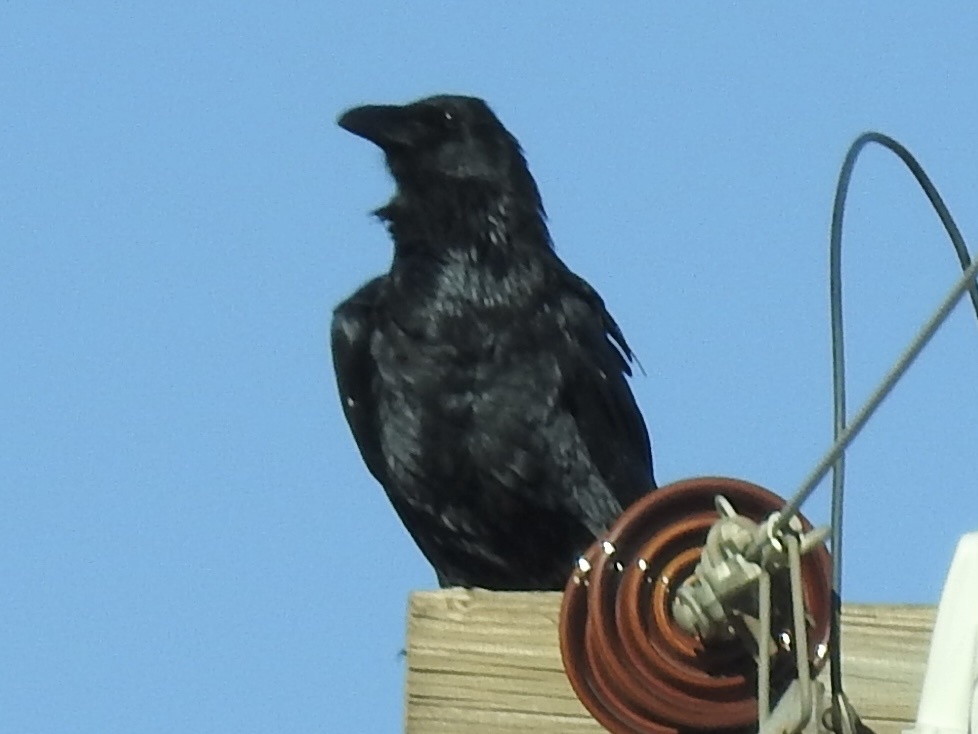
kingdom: Animalia
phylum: Chordata
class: Aves
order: Passeriformes
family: Corvidae
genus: Corvus
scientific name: Corvus corax
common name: Common raven
